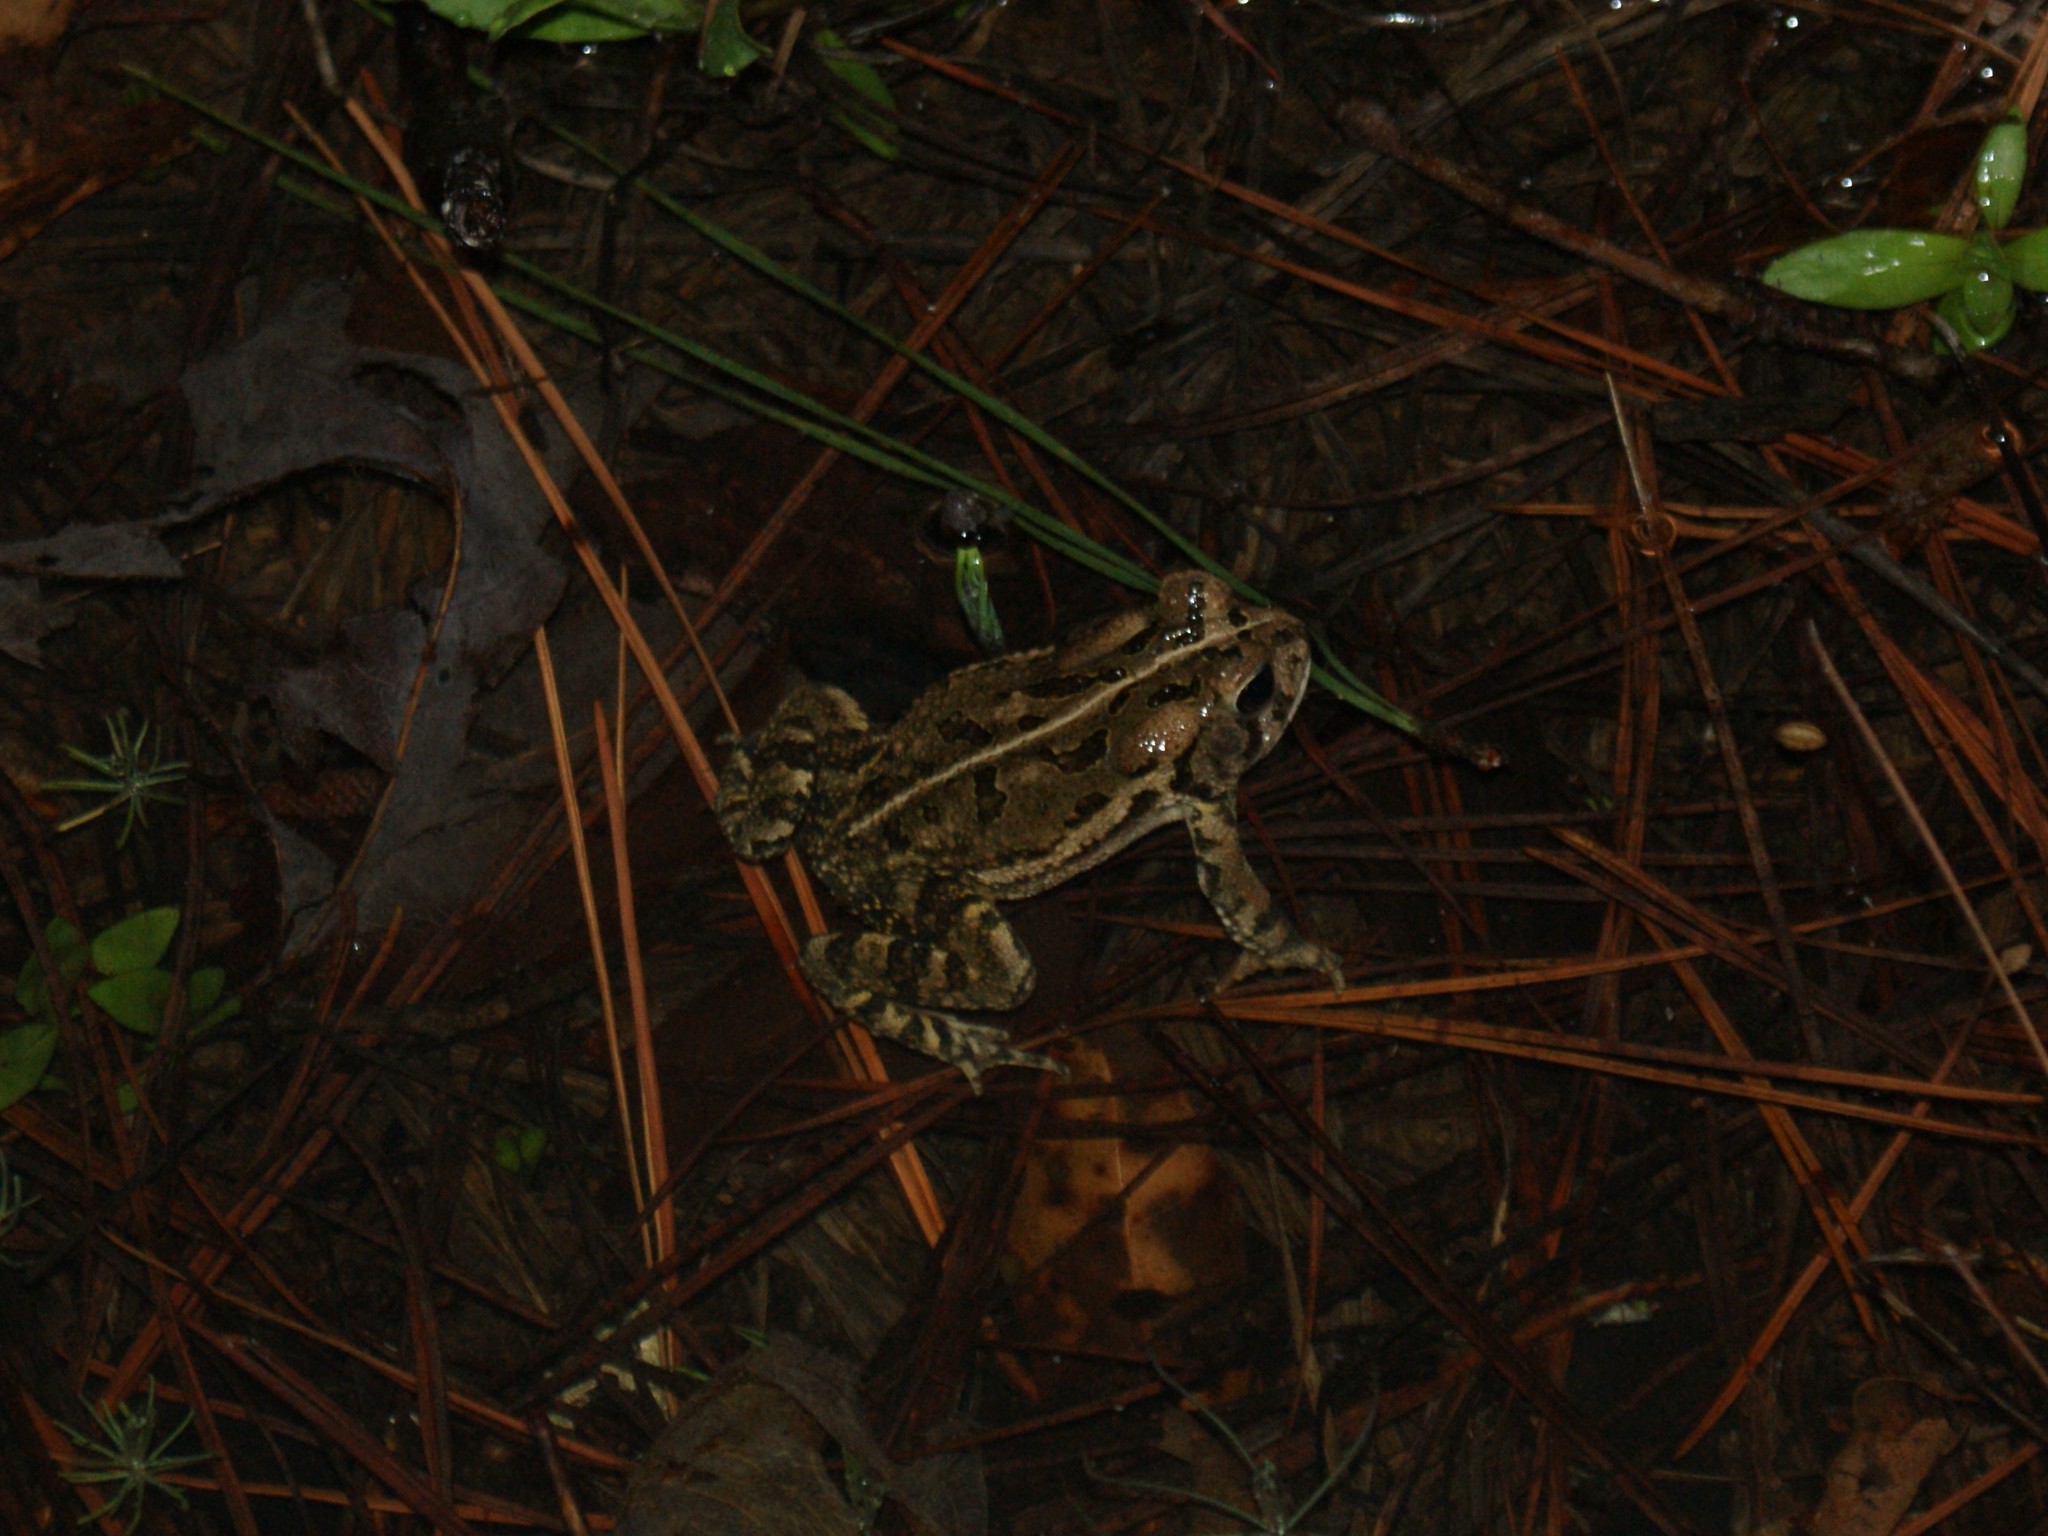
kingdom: Animalia
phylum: Chordata
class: Amphibia
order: Anura
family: Bufonidae
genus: Anaxyrus
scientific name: Anaxyrus fowleri
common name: Fowler's toad
